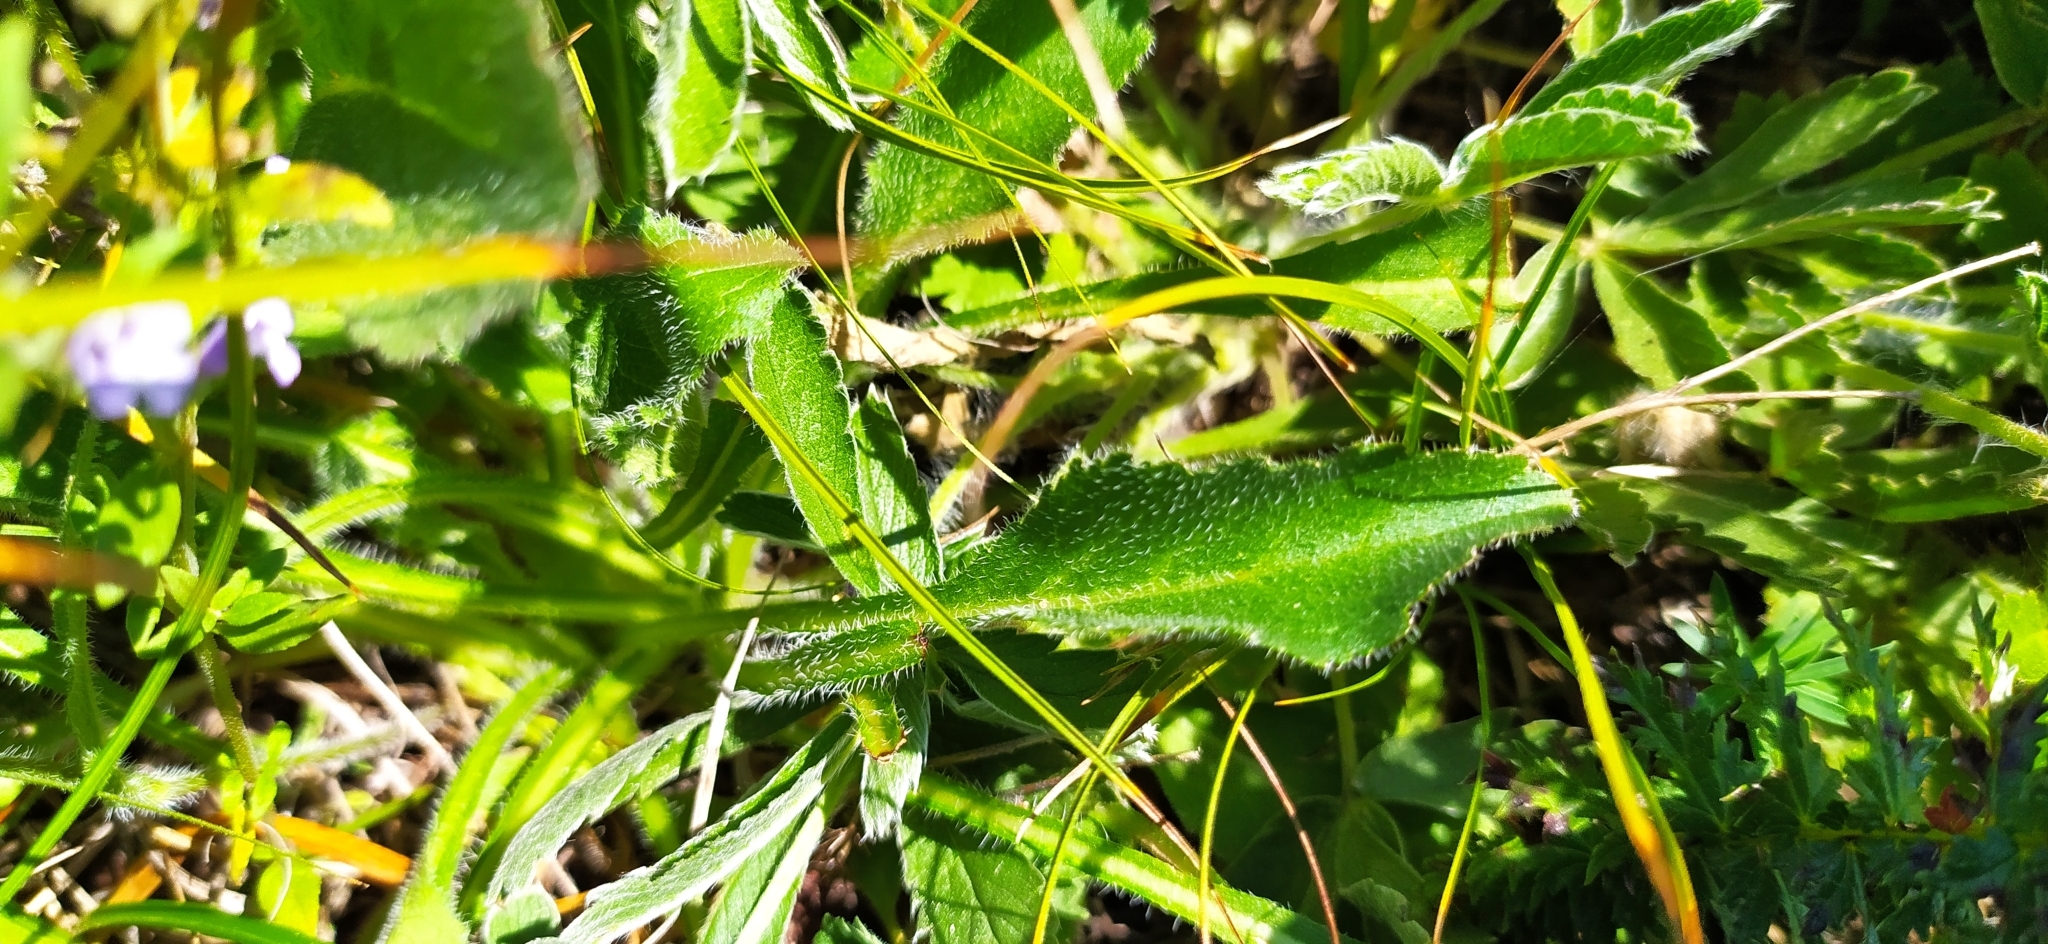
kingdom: Plantae
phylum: Tracheophyta
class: Magnoliopsida
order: Asterales
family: Campanulaceae
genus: Campanula
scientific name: Campanula sibirica
